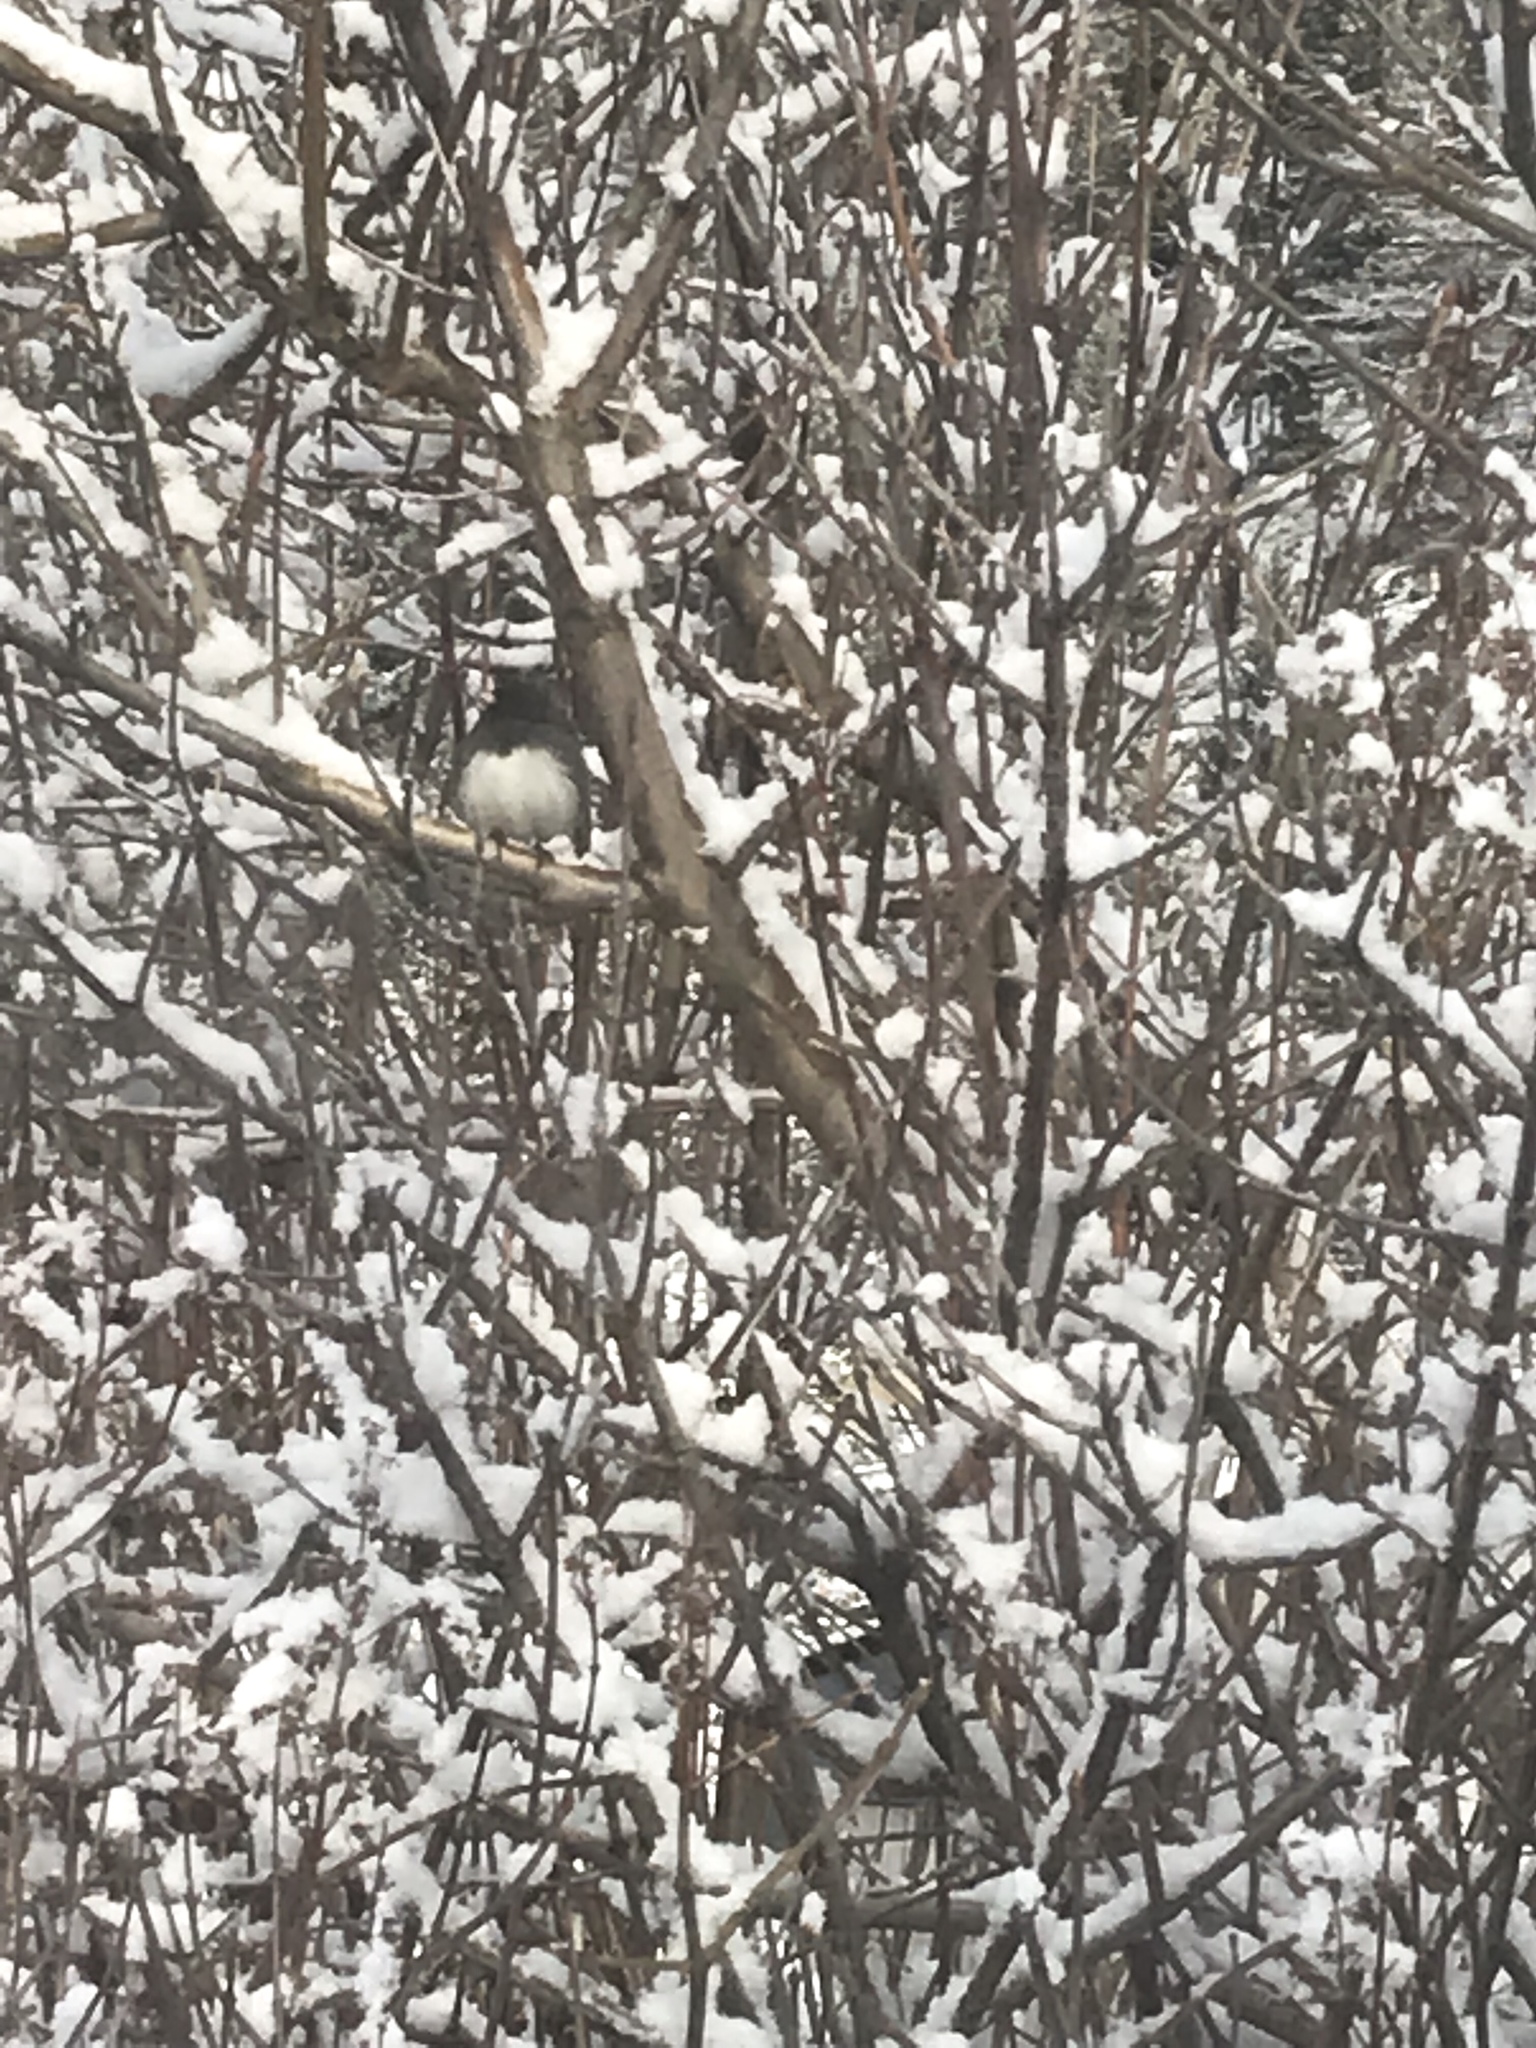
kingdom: Animalia
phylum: Chordata
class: Aves
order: Passeriformes
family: Passerellidae
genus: Junco
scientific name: Junco hyemalis
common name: Dark-eyed junco
